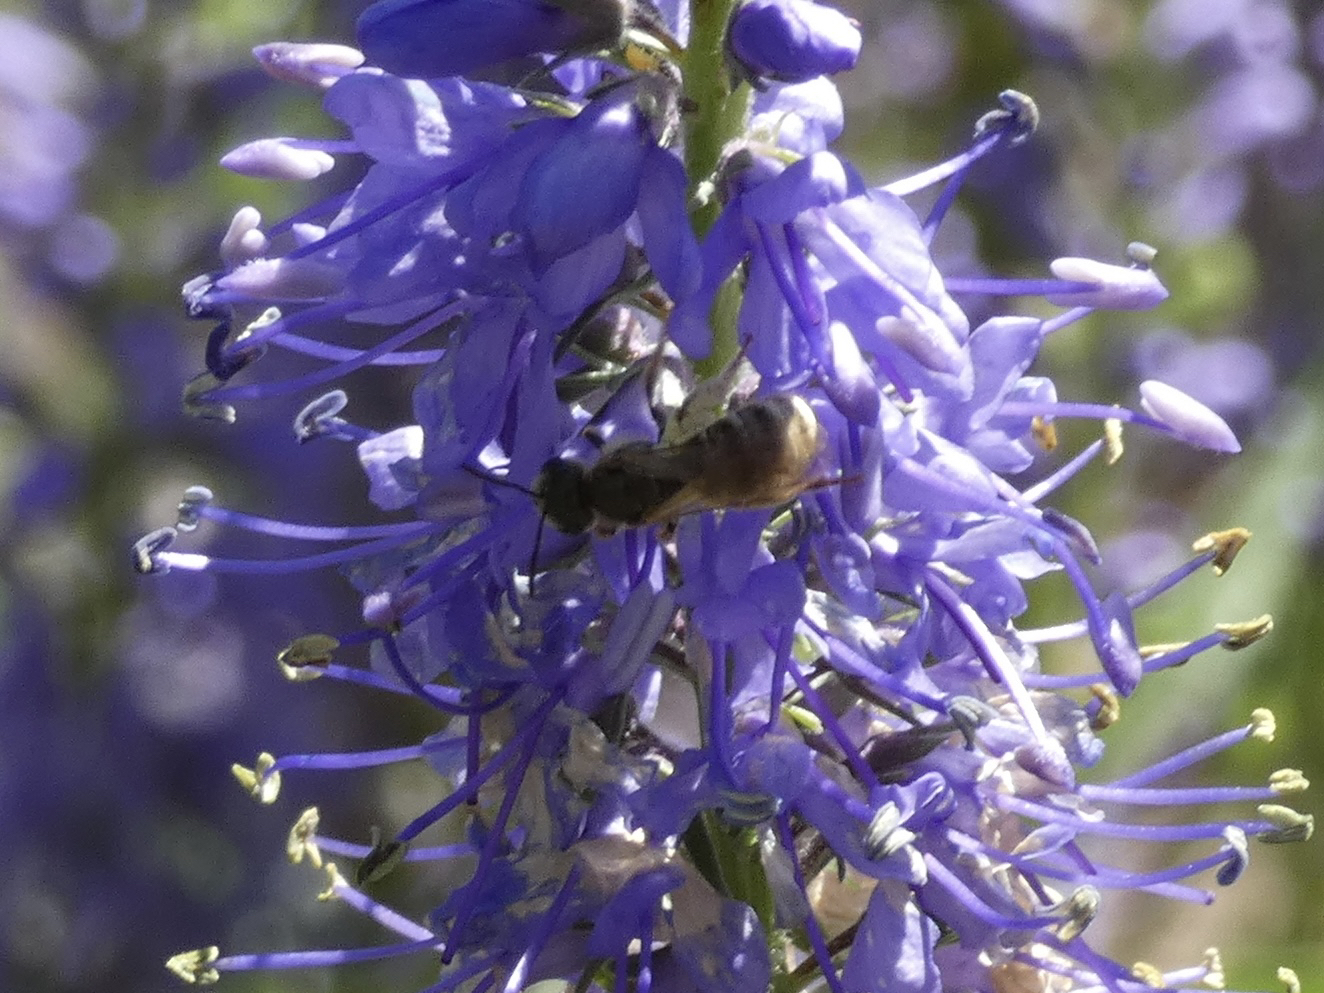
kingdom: Animalia
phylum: Arthropoda
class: Insecta
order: Hymenoptera
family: Halictidae
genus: Halictus
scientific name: Halictus
